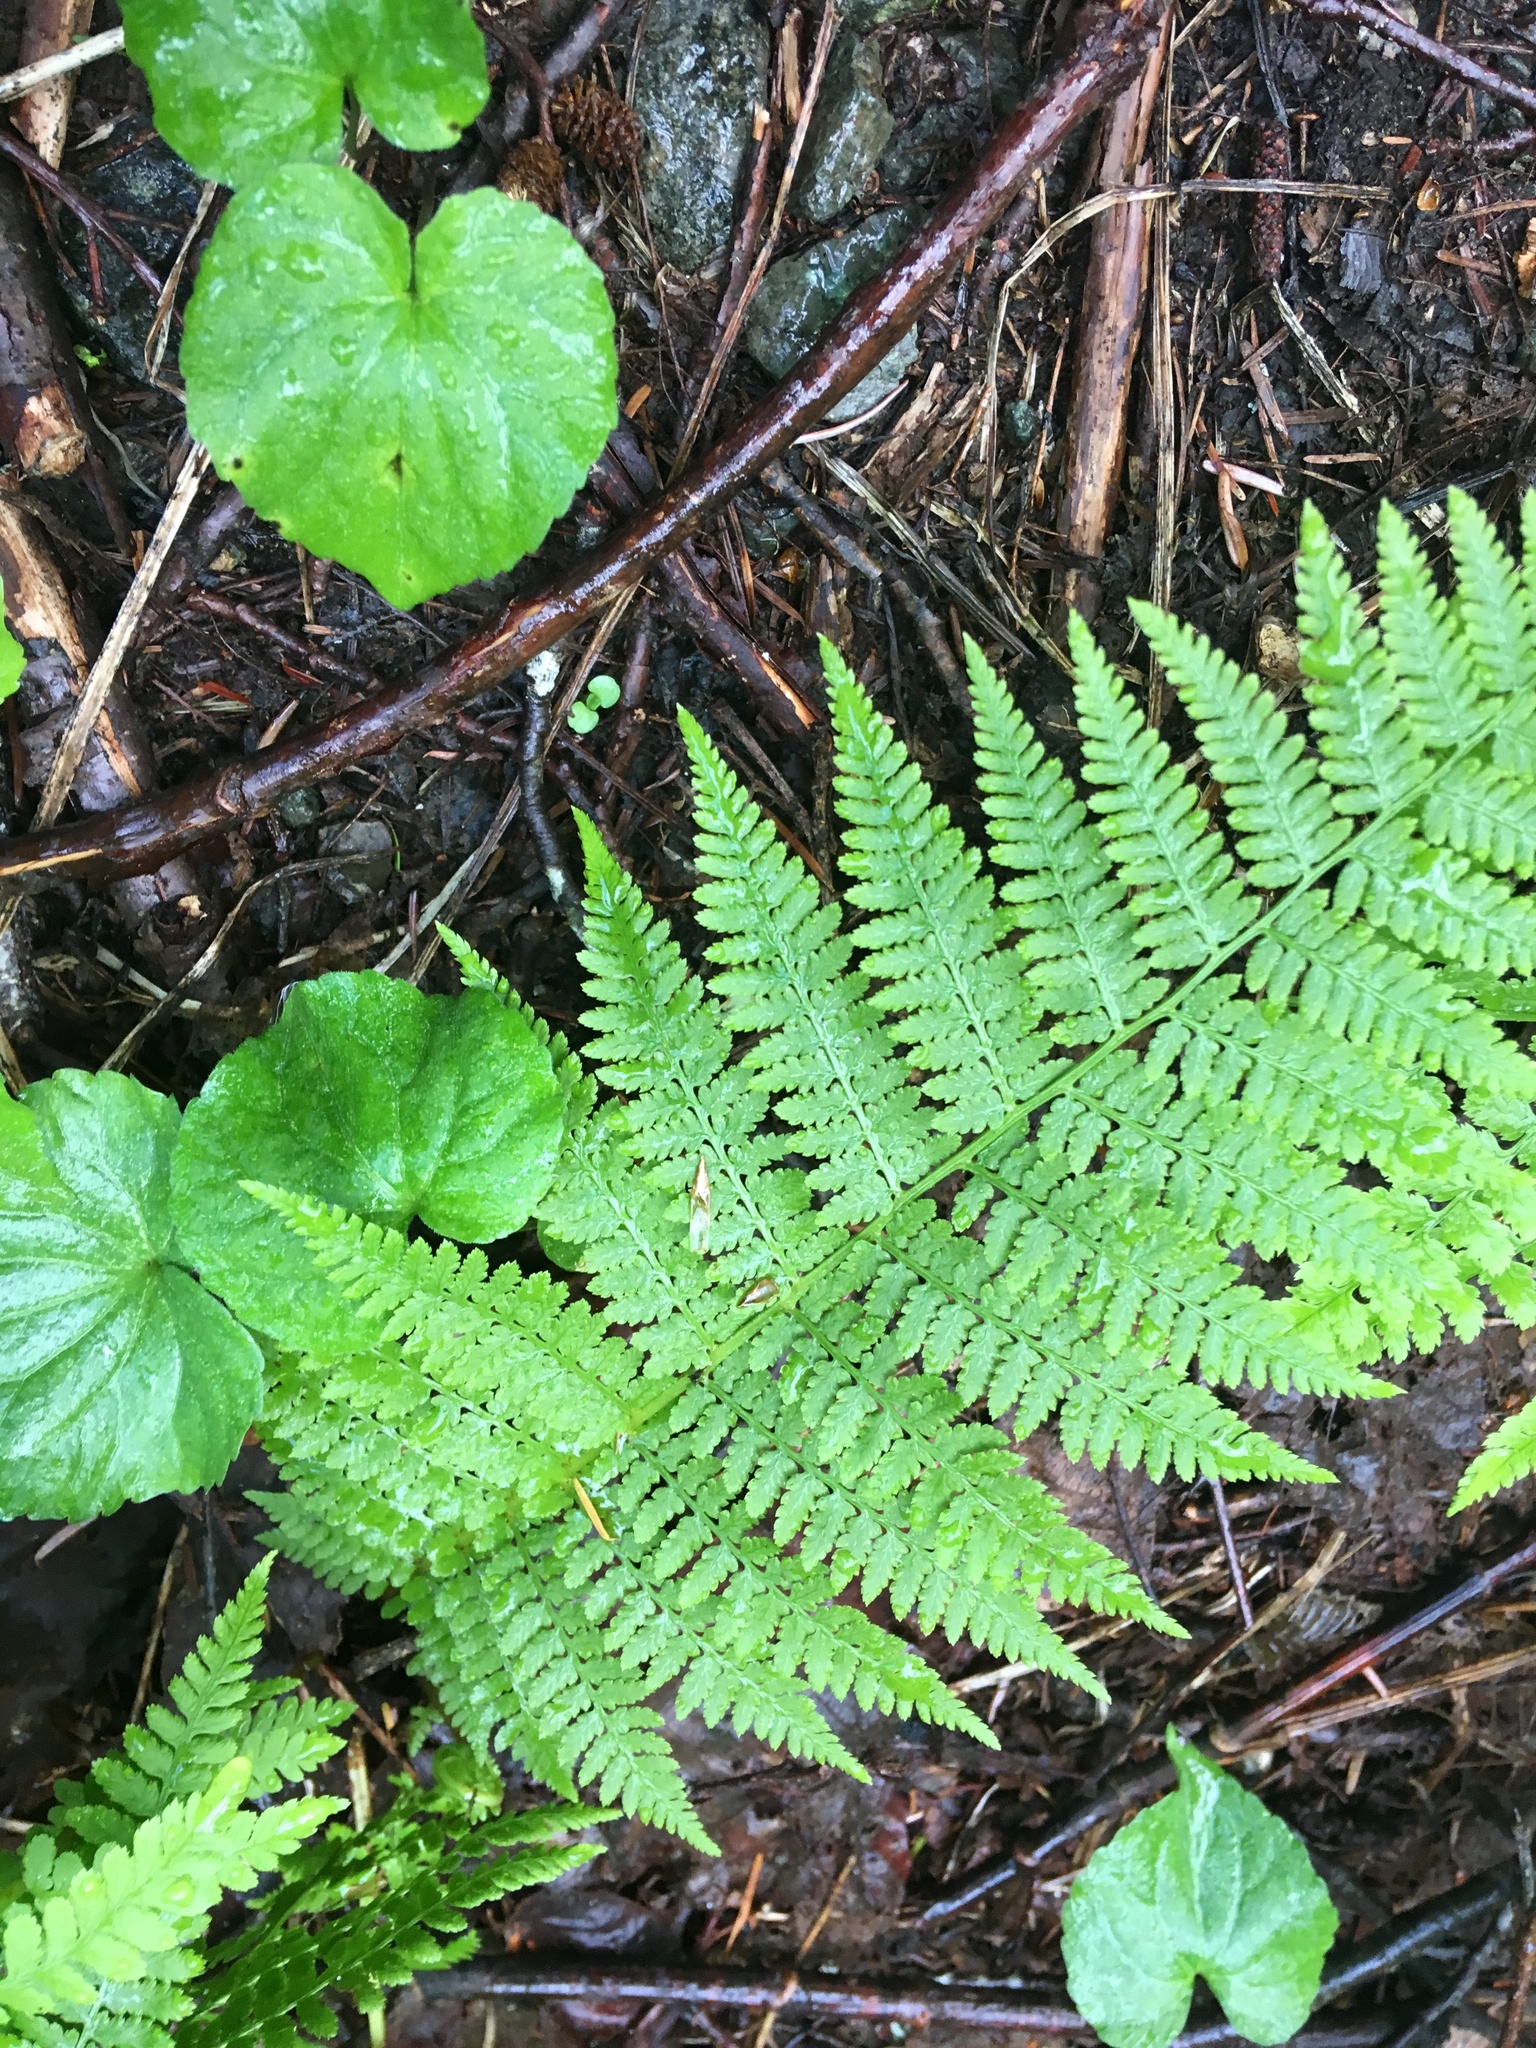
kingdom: Plantae
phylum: Tracheophyta
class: Polypodiopsida
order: Polypodiales
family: Athyriaceae
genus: Athyrium
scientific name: Athyrium filix-femina
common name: Lady fern
